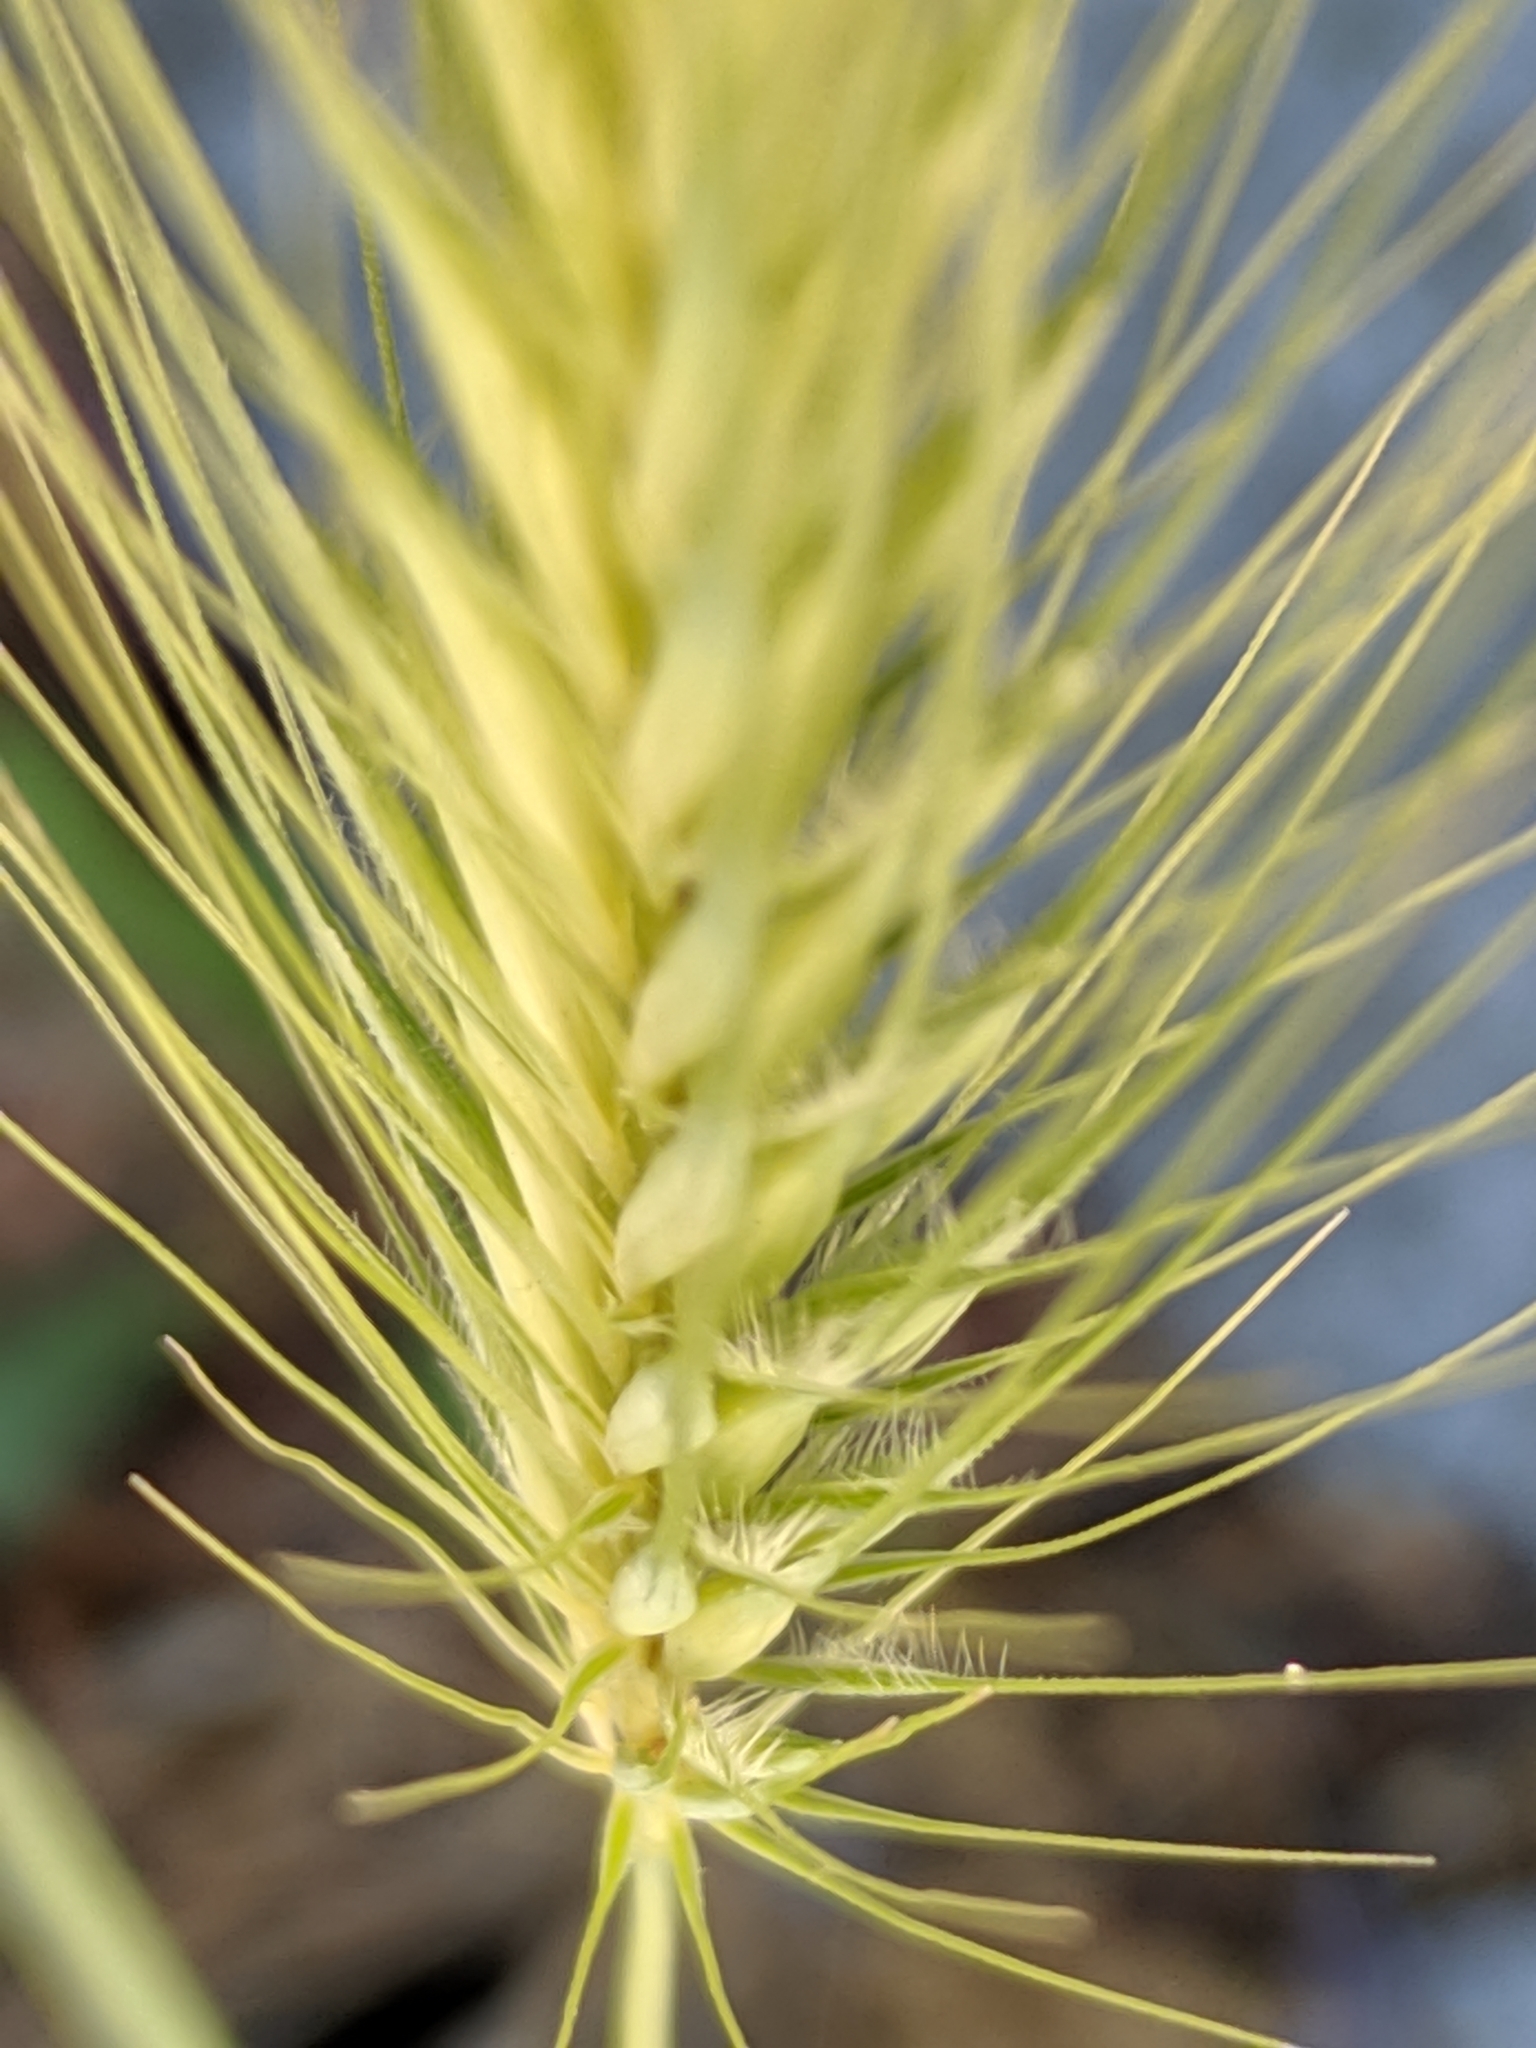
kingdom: Plantae
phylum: Tracheophyta
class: Liliopsida
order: Poales
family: Poaceae
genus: Hordeum
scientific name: Hordeum murinum
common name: Wall barley
